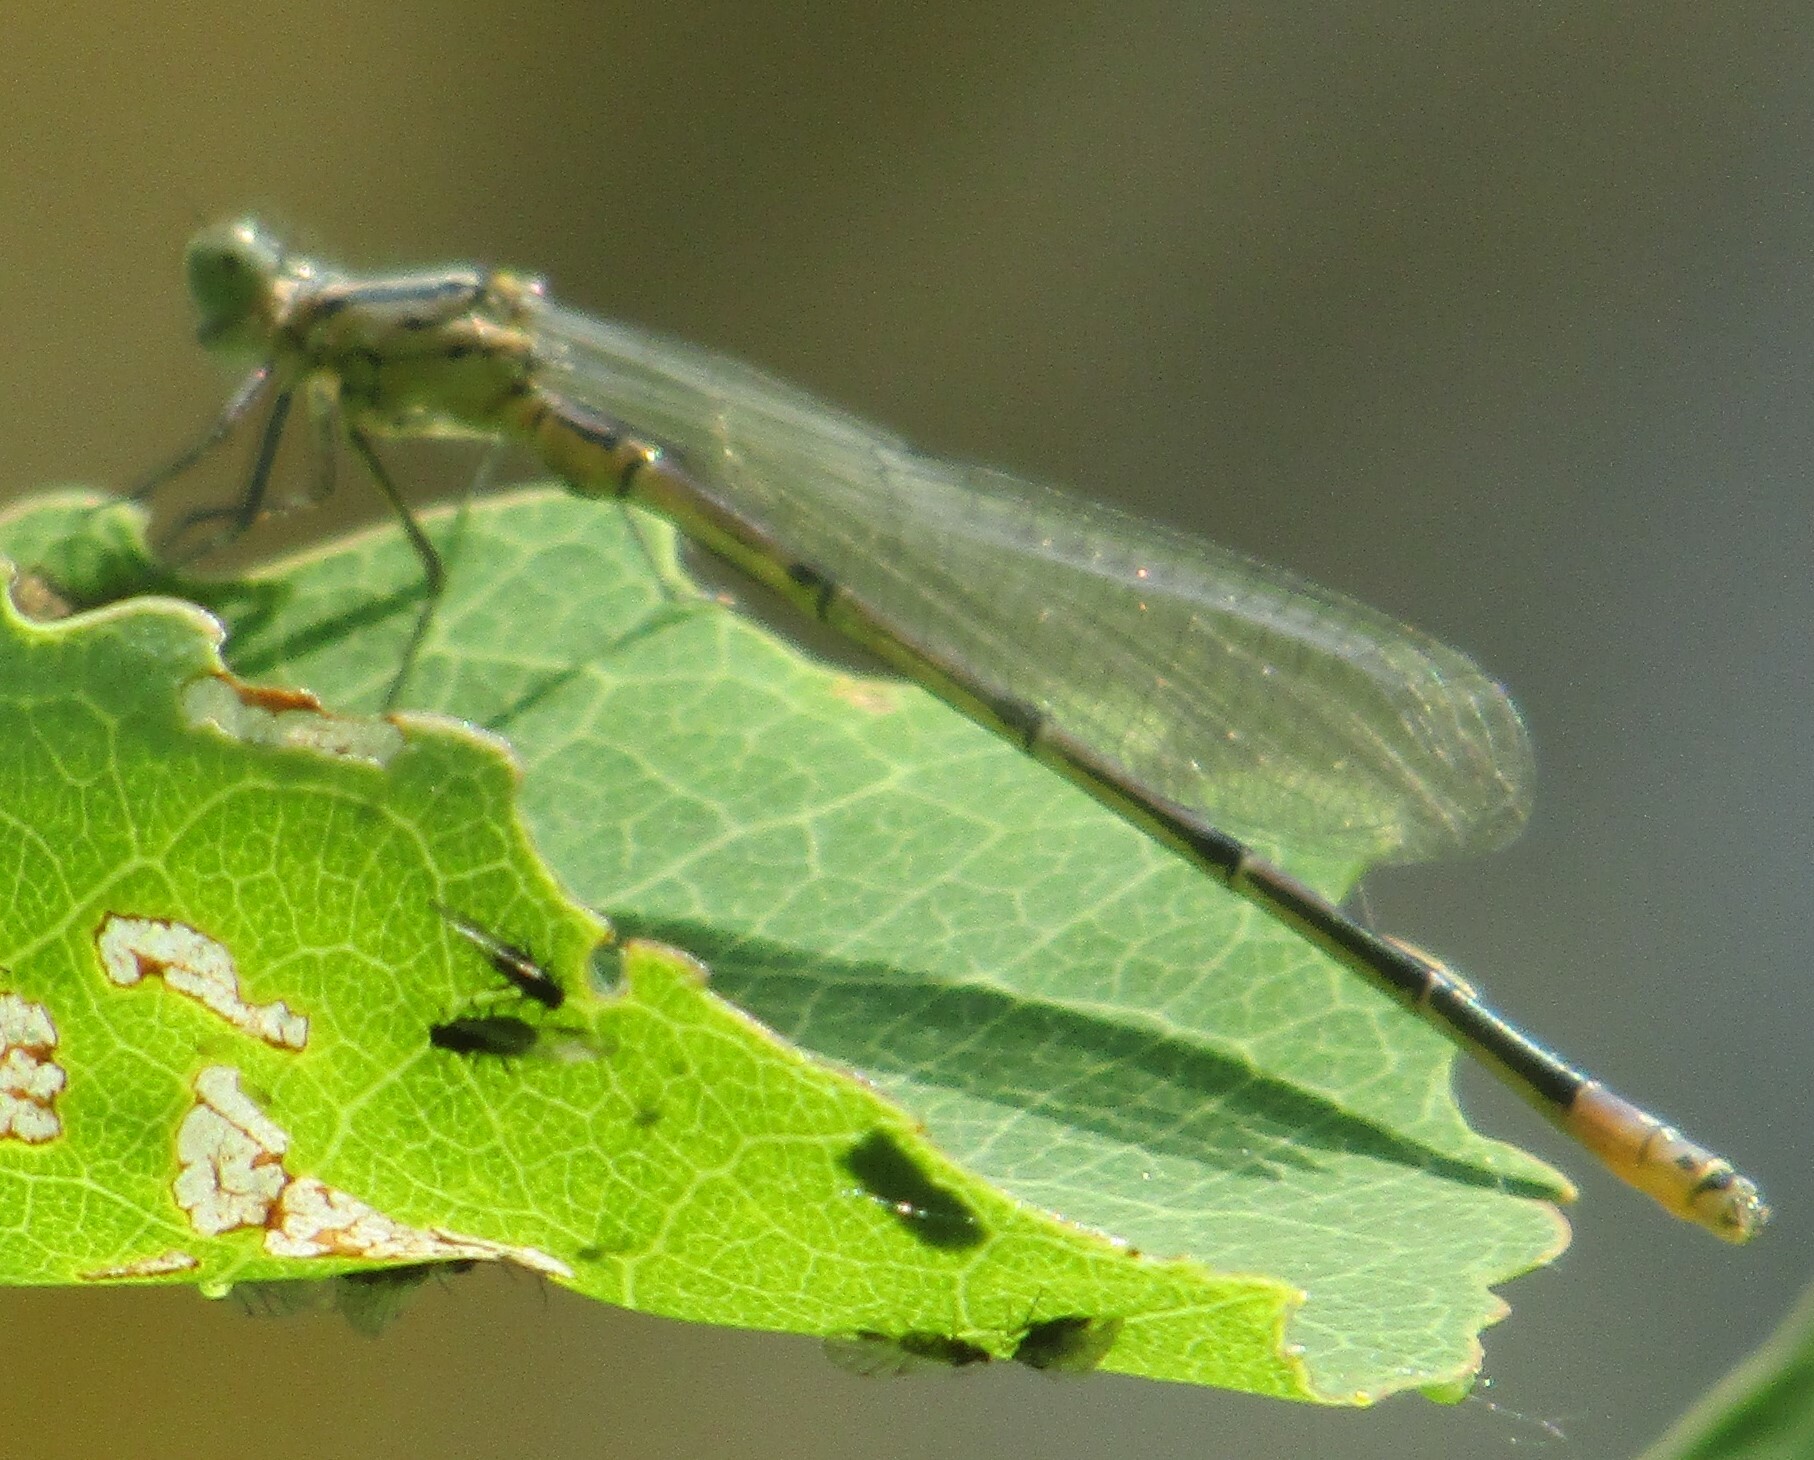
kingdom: Animalia
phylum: Arthropoda
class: Insecta
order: Odonata
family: Coenagrionidae
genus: Coenagrion
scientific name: Coenagrion puella
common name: Azure damselfly
